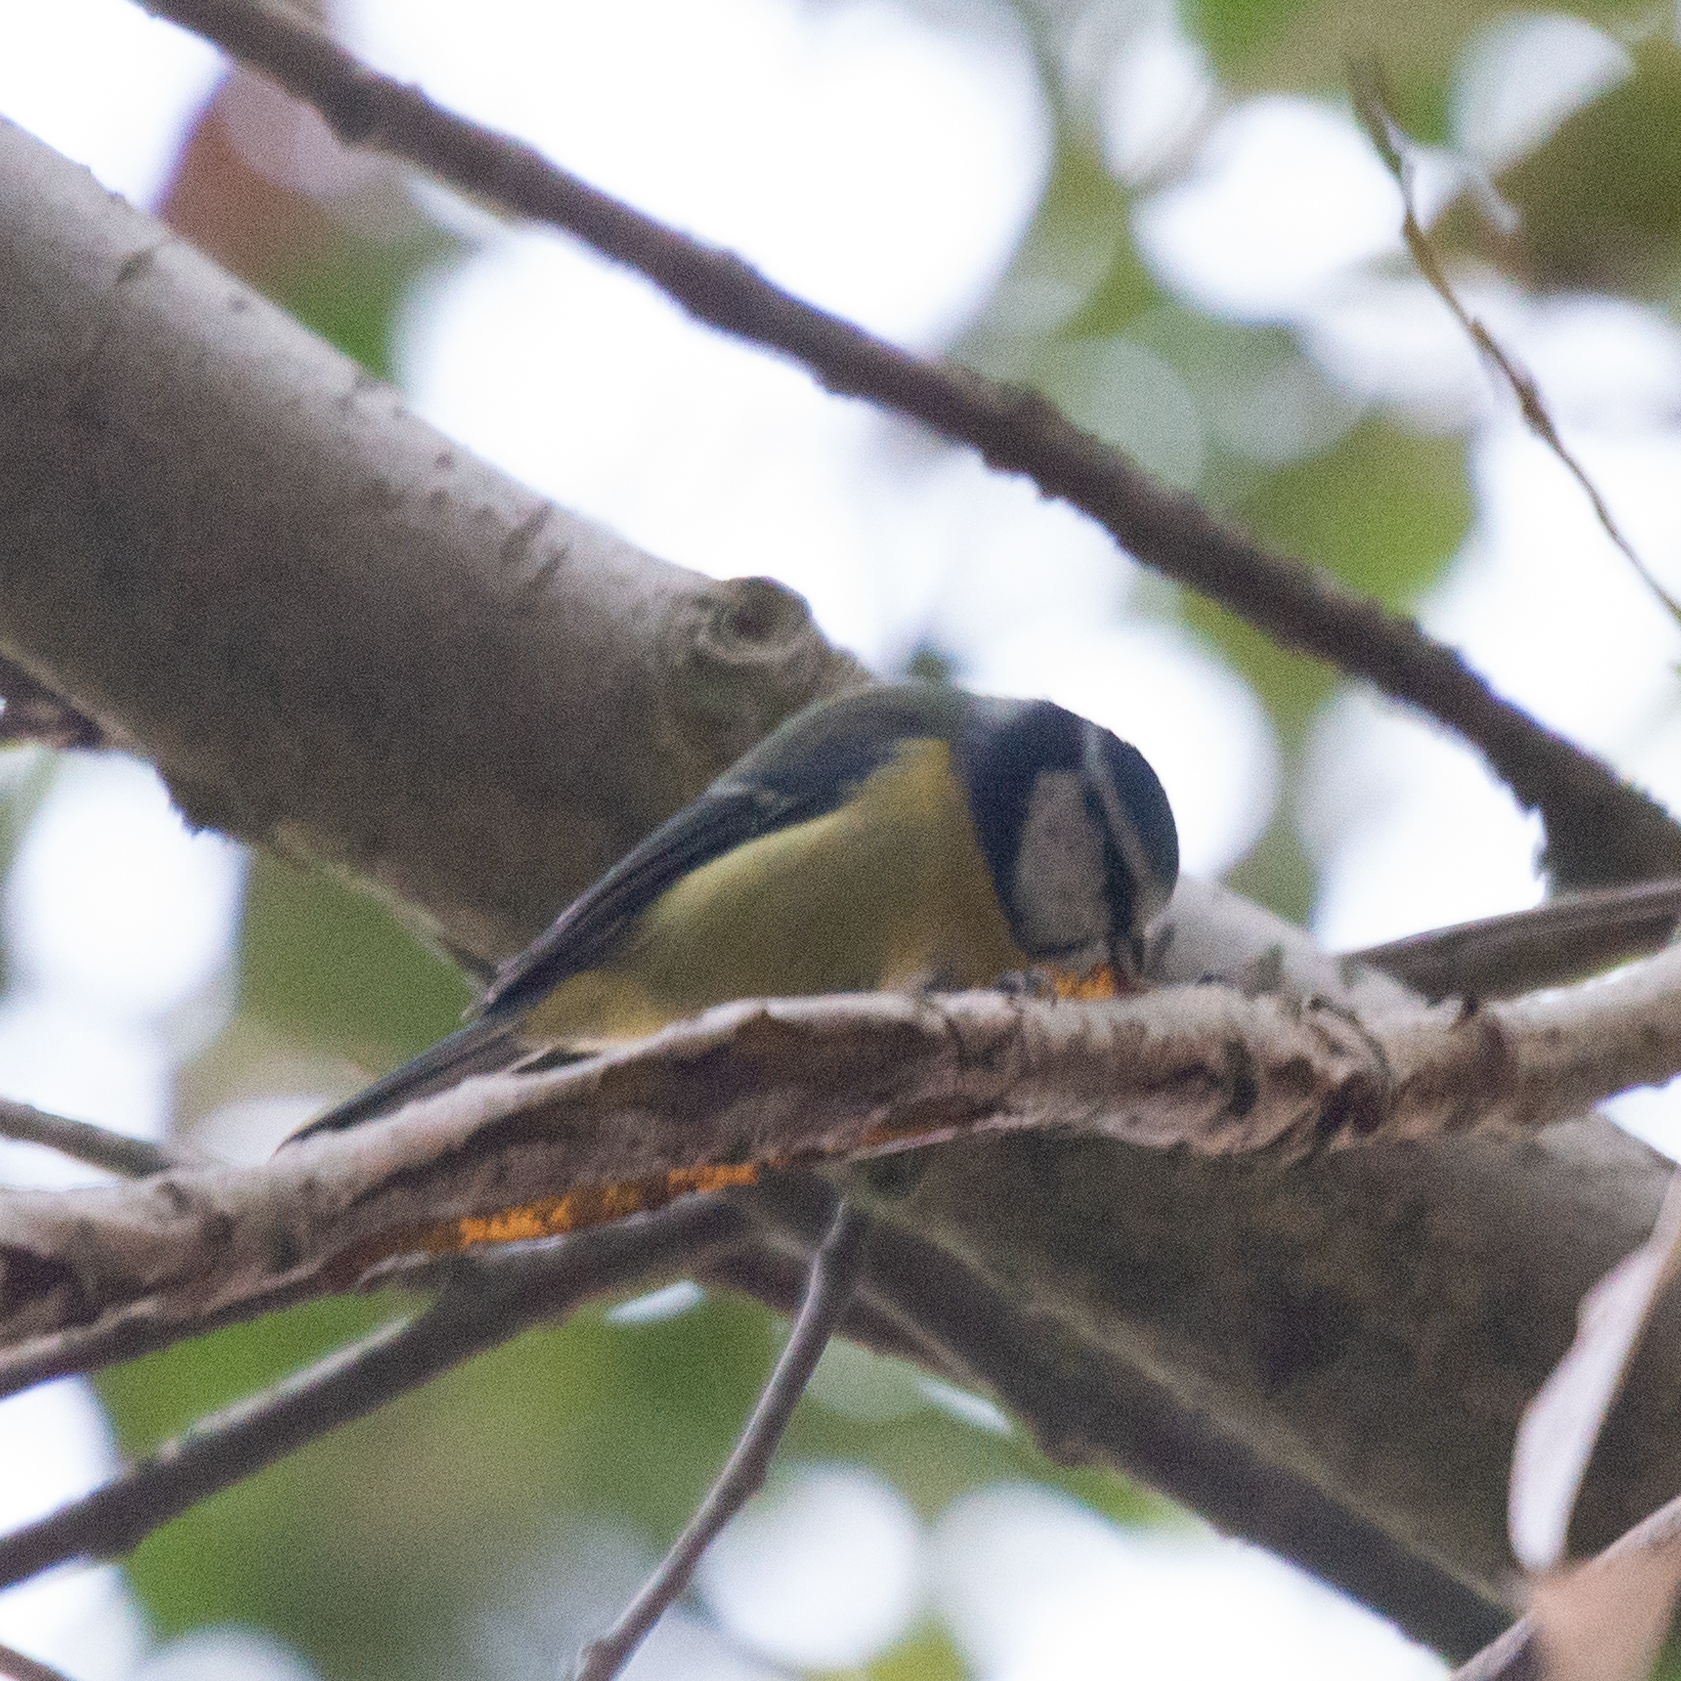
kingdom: Animalia
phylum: Chordata
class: Aves
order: Passeriformes
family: Paridae
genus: Cyanistes
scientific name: Cyanistes caeruleus
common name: Eurasian blue tit
